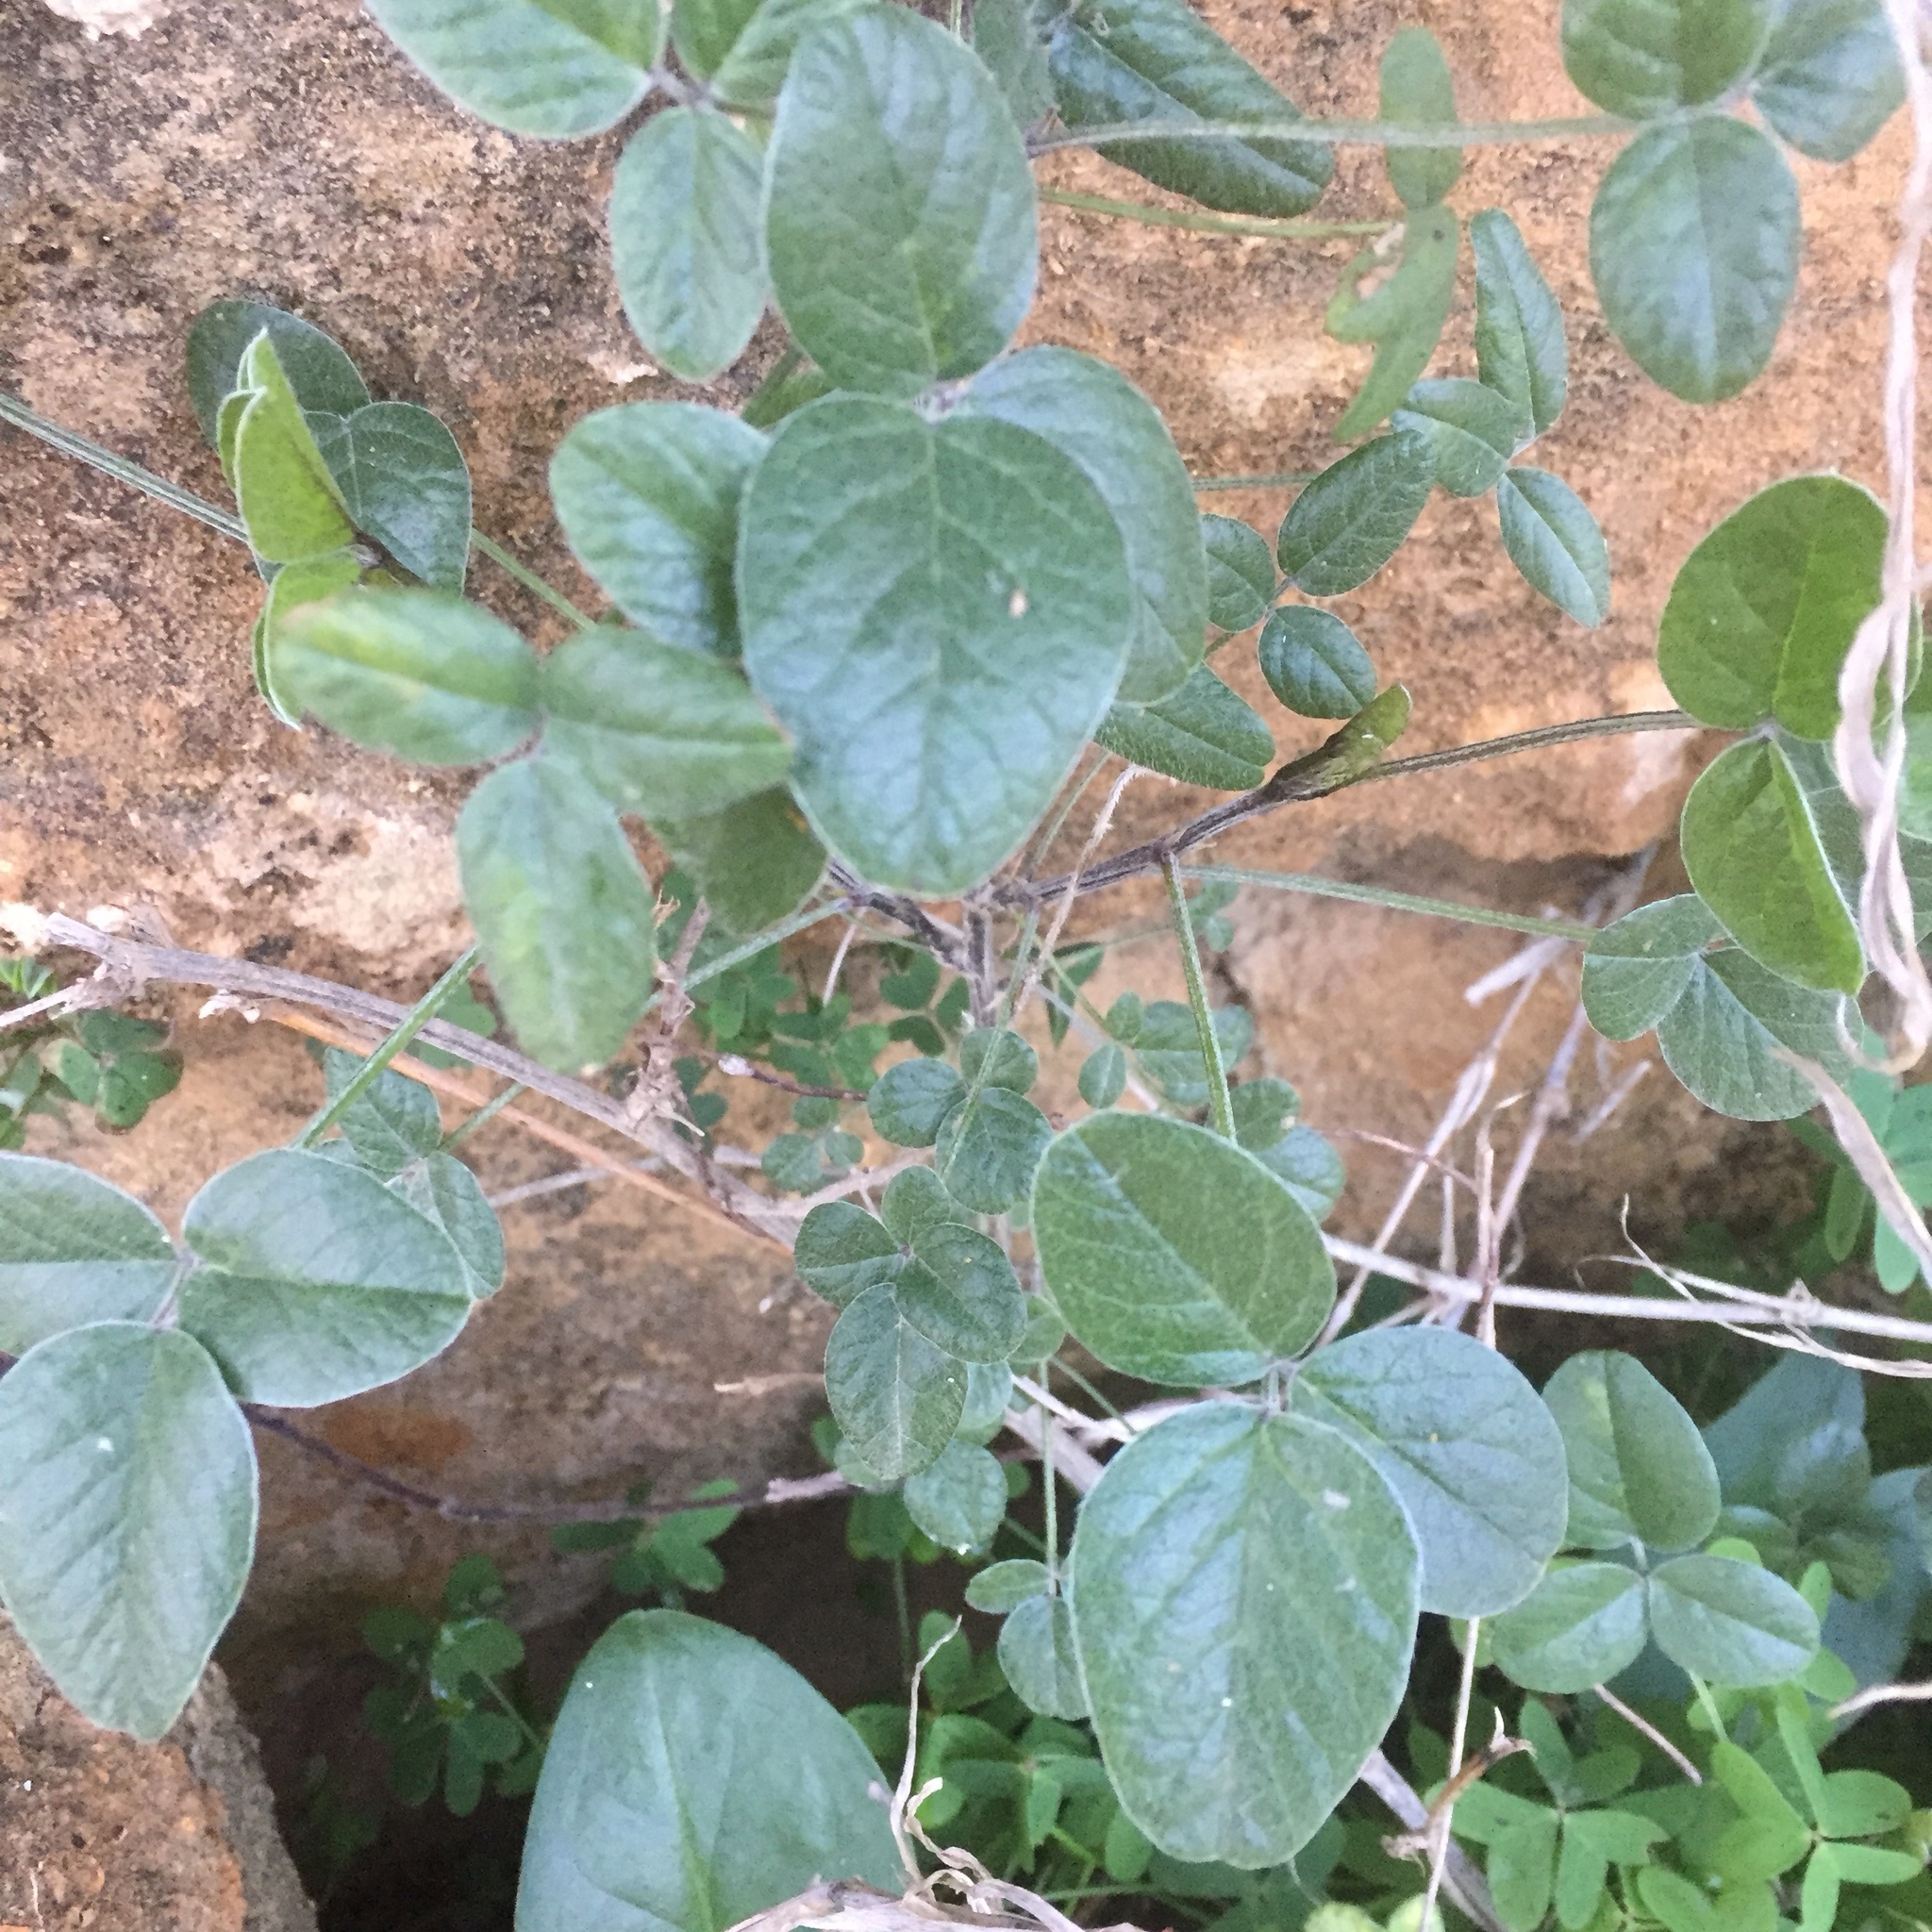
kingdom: Plantae
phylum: Tracheophyta
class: Magnoliopsida
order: Fabales
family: Fabaceae
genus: Bituminaria
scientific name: Bituminaria bituminosa
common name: Arabian pea
